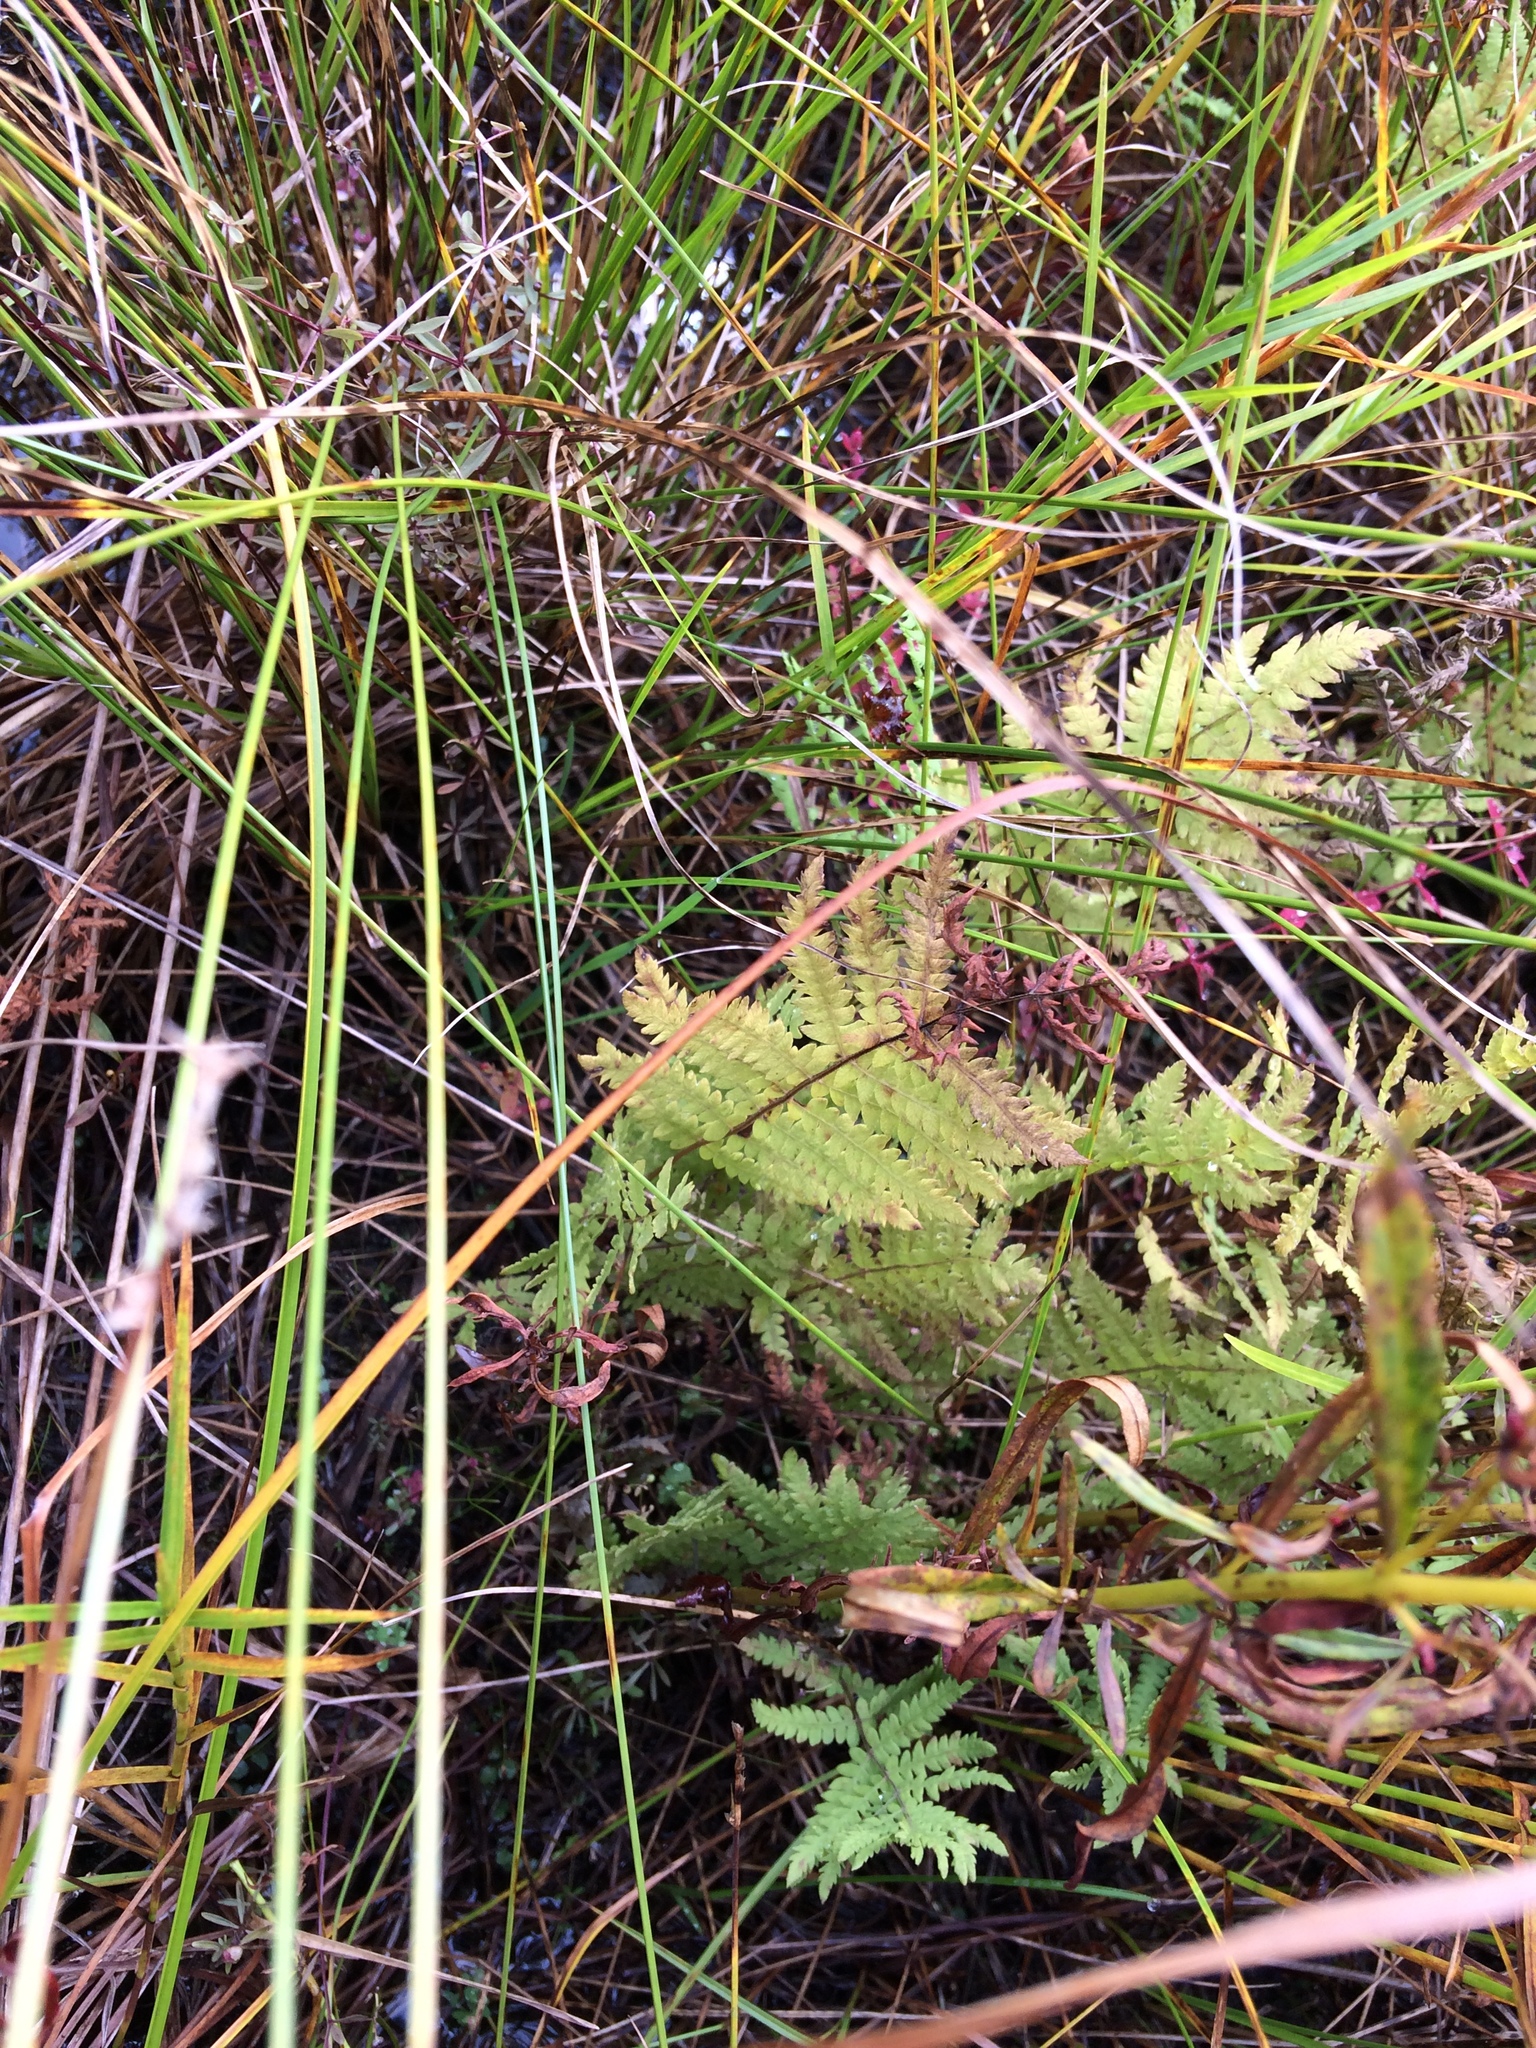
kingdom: Plantae
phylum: Tracheophyta
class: Polypodiopsida
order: Polypodiales
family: Thelypteridaceae
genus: Thelypteris
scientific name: Thelypteris palustris
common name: Marsh fern
